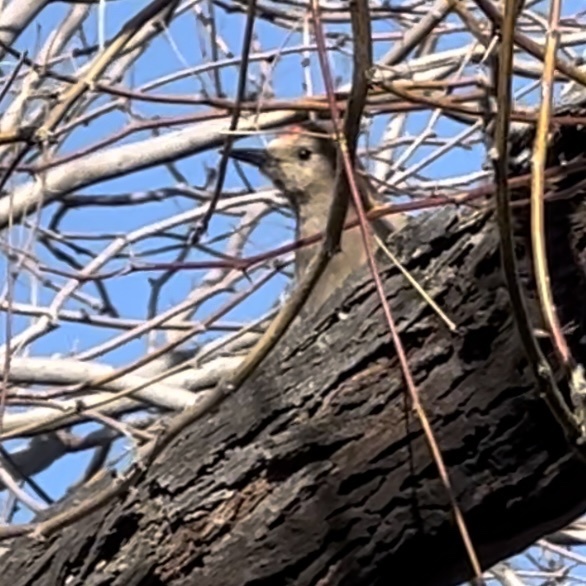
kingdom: Animalia
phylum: Chordata
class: Aves
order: Piciformes
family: Picidae
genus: Melanerpes
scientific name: Melanerpes uropygialis
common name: Gila woodpecker
